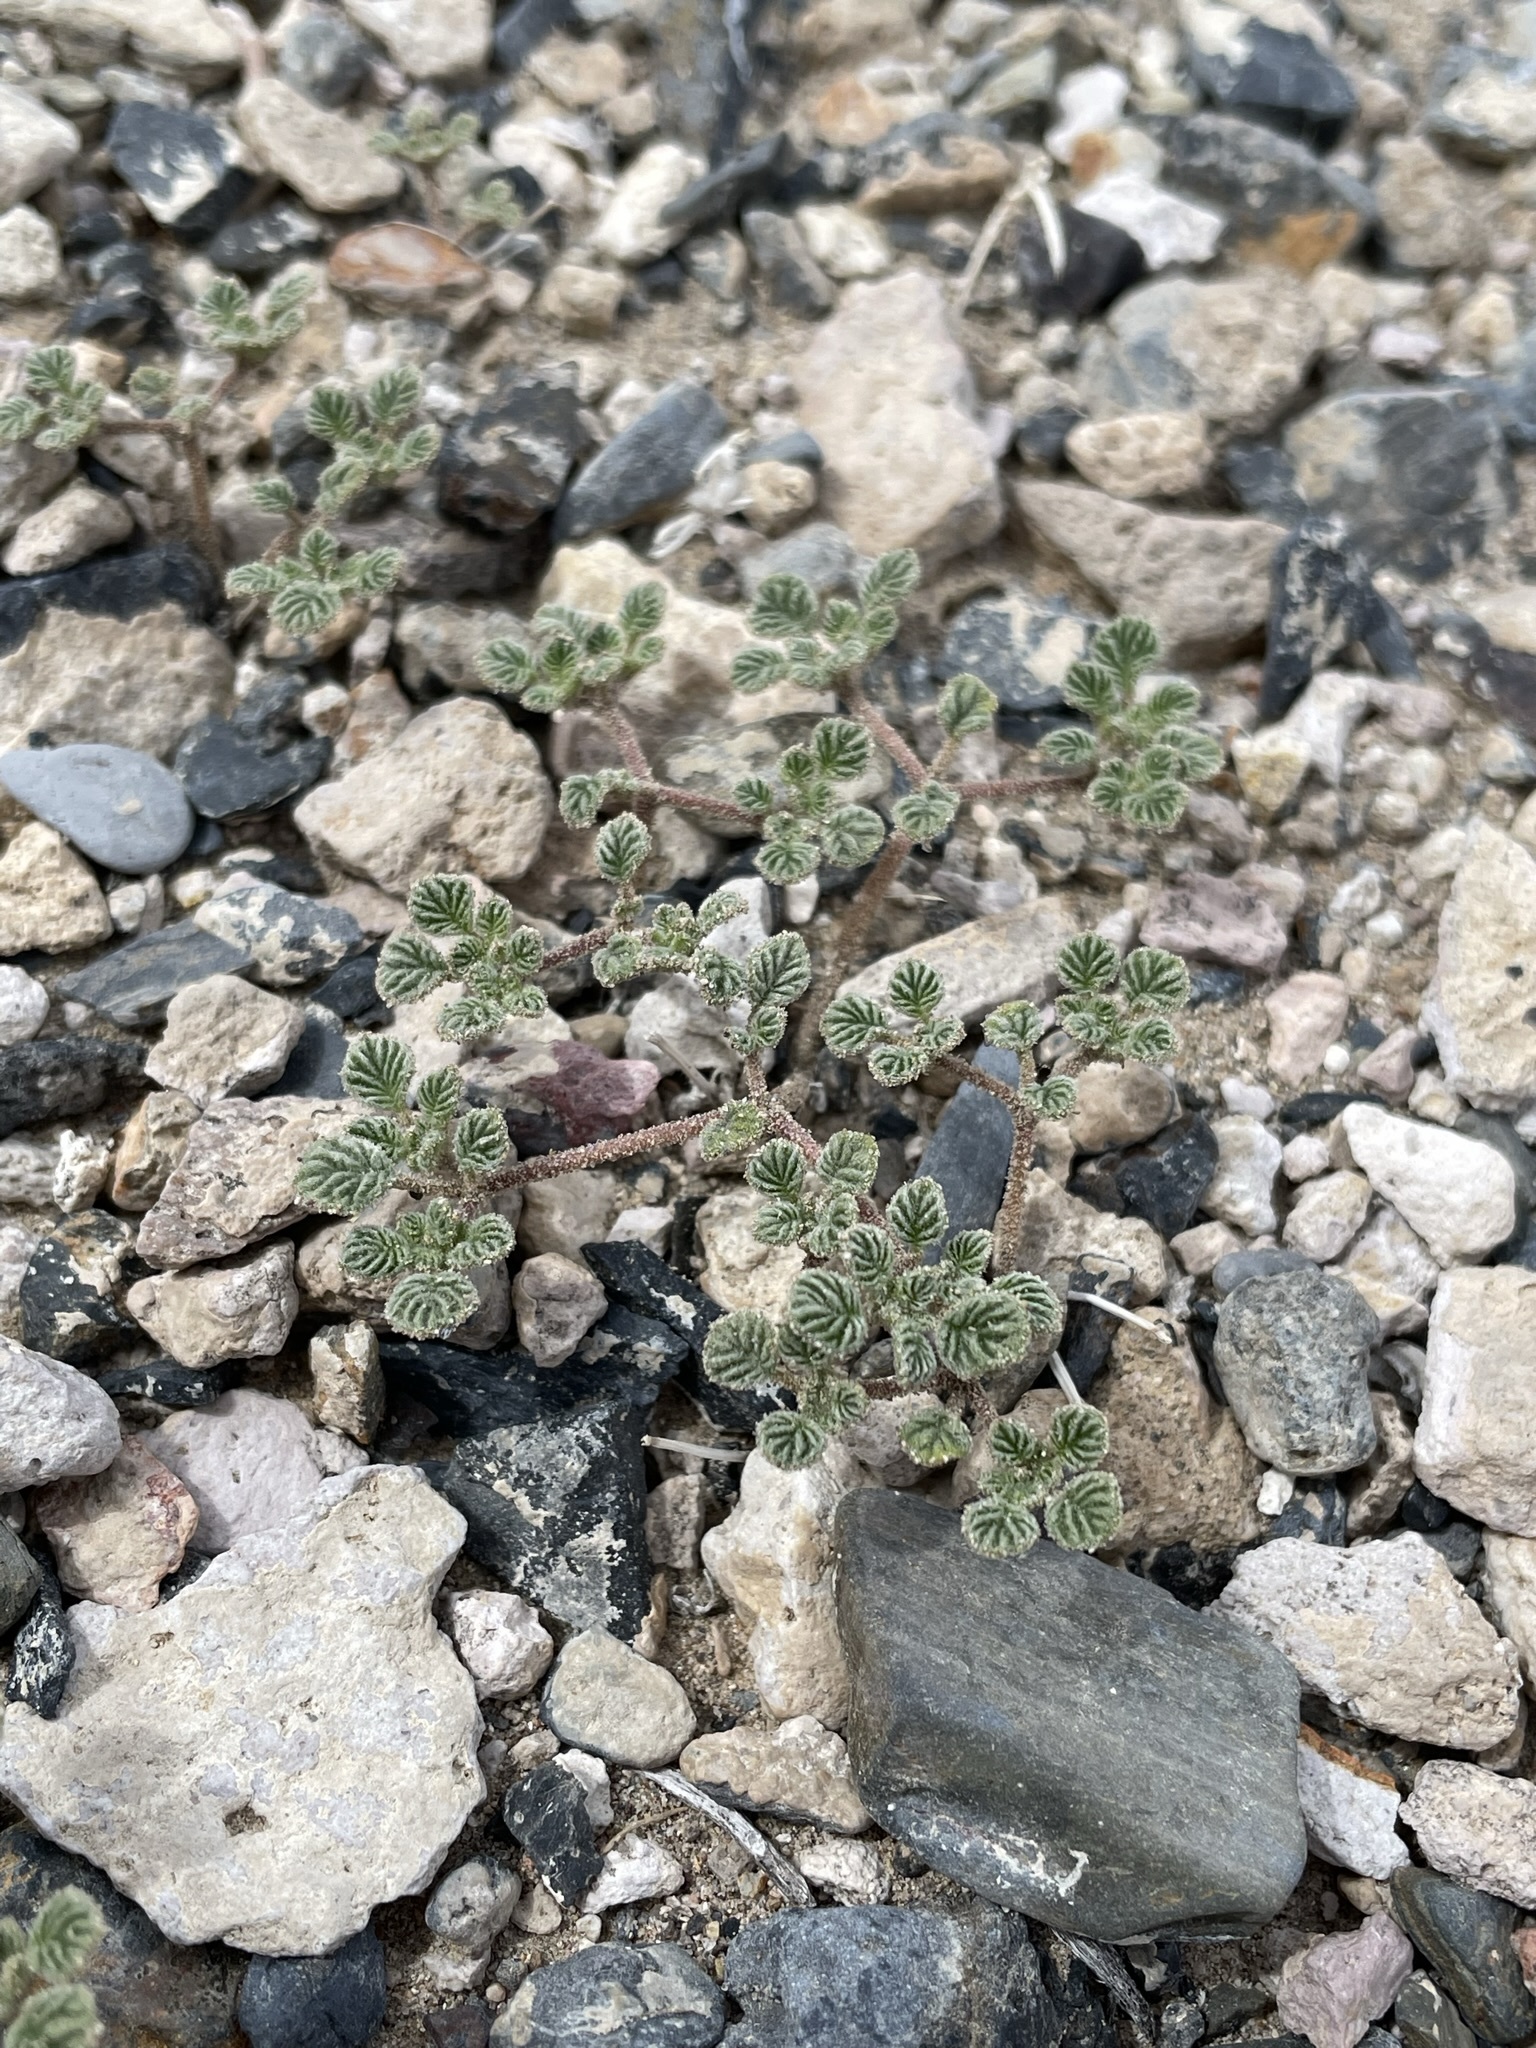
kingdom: Plantae
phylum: Tracheophyta
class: Magnoliopsida
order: Boraginales
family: Ehretiaceae
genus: Tiquilia
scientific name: Tiquilia plicata
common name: Fan-leaf tiquilia
